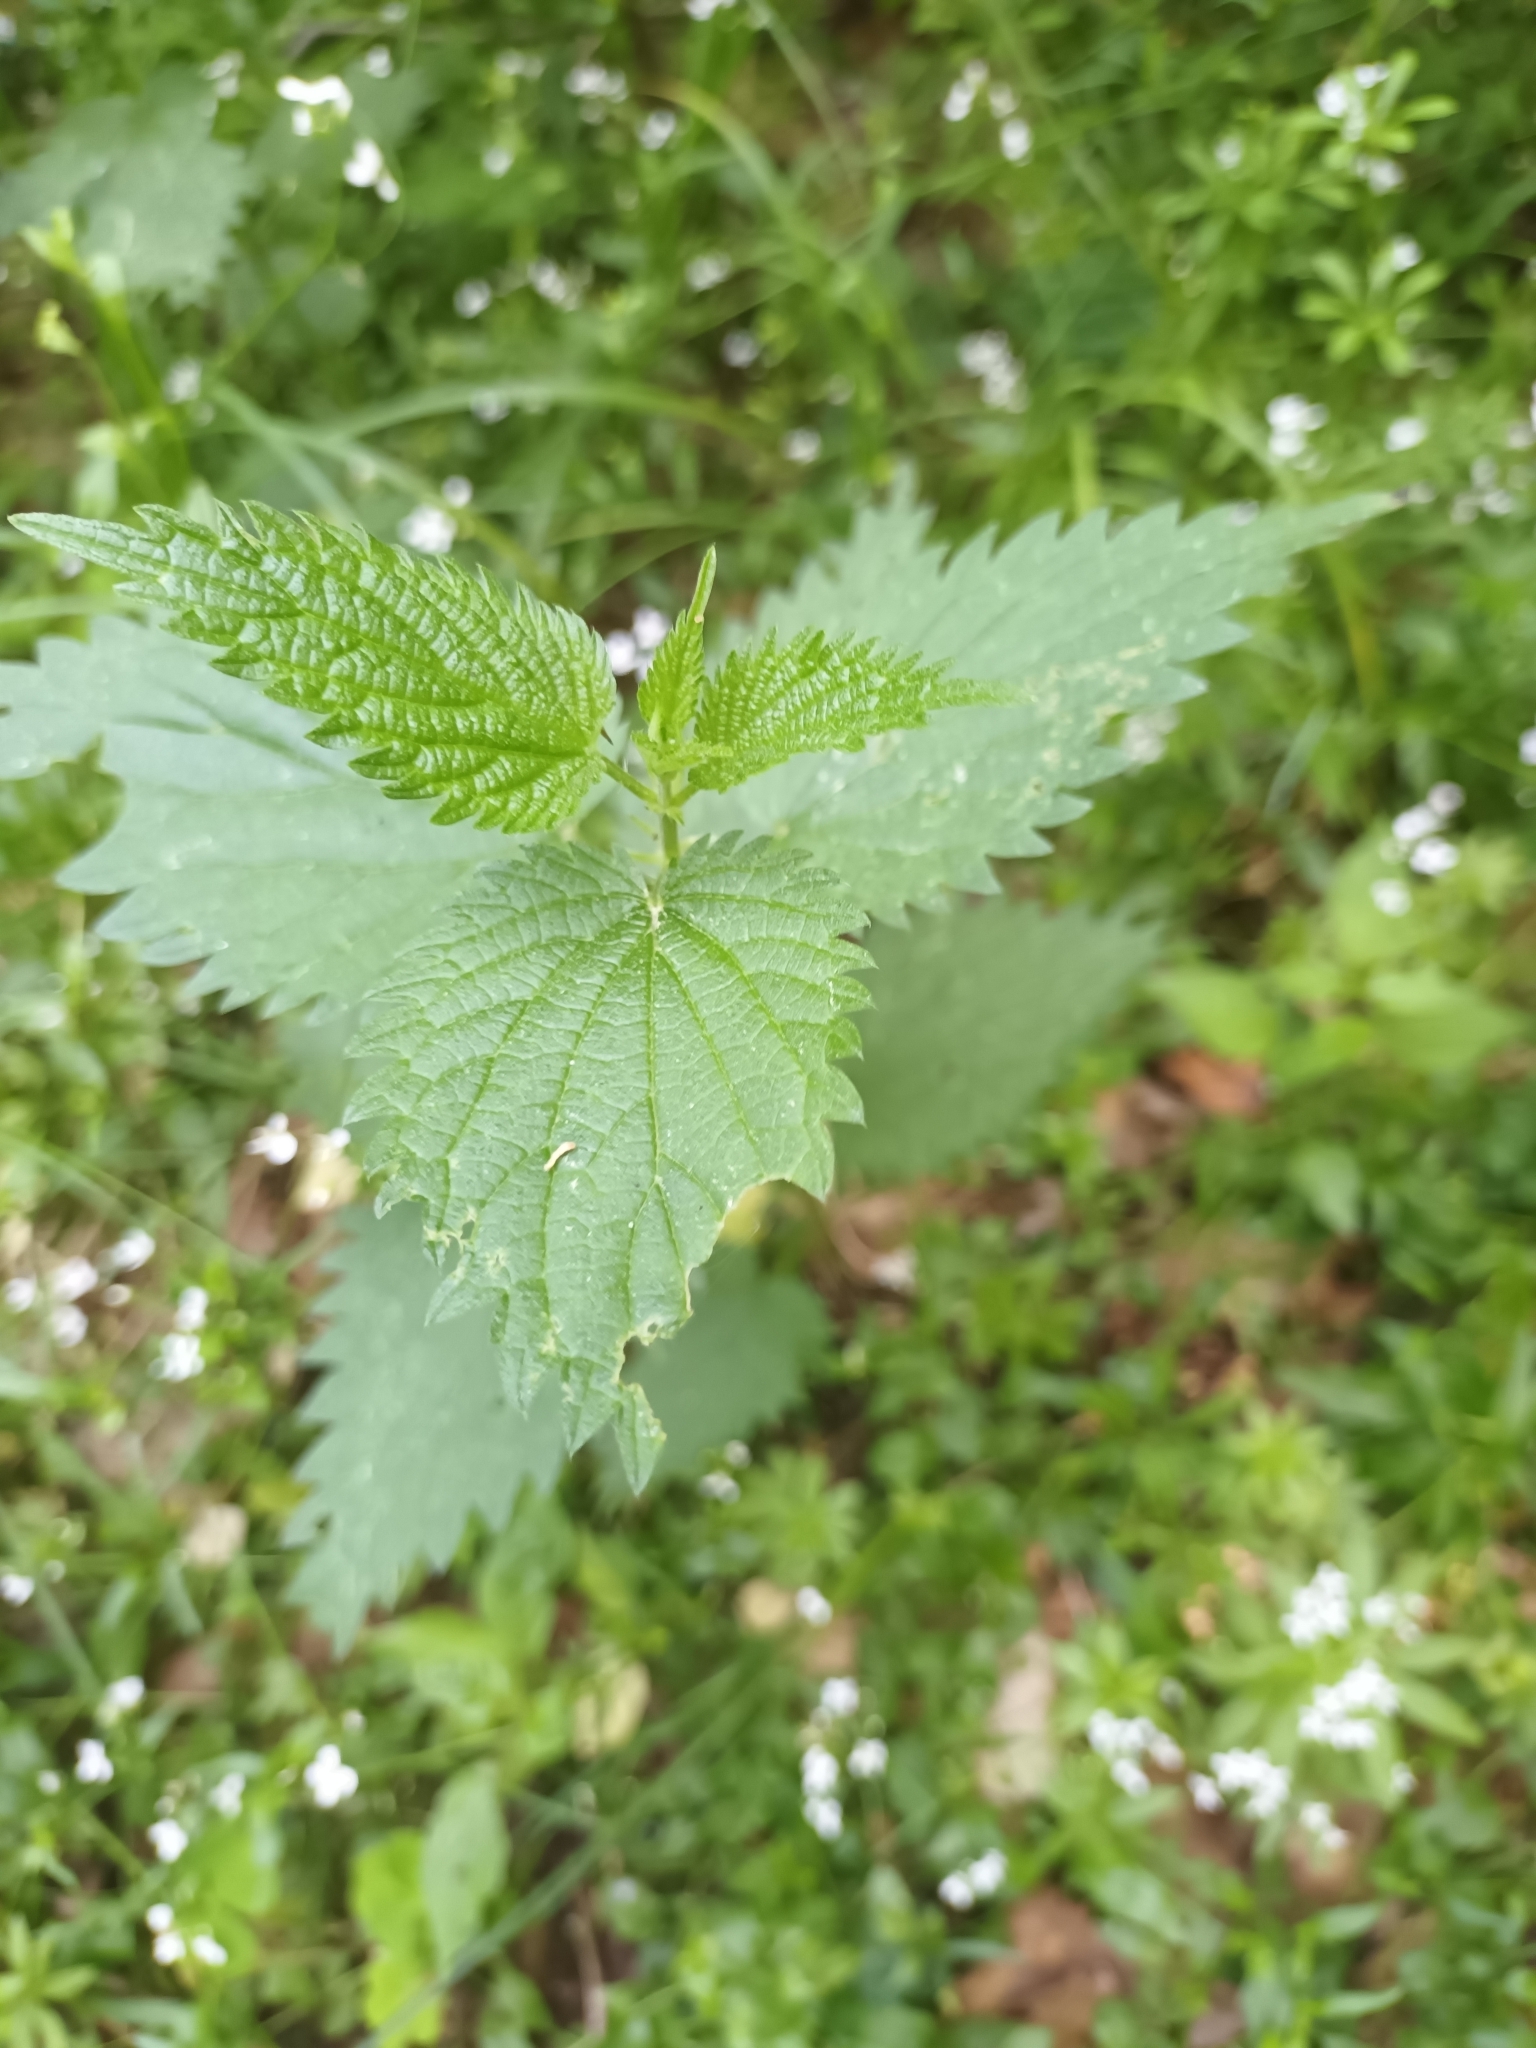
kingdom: Plantae
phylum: Tracheophyta
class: Magnoliopsida
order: Rosales
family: Urticaceae
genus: Urtica
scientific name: Urtica dioica
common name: Common nettle
